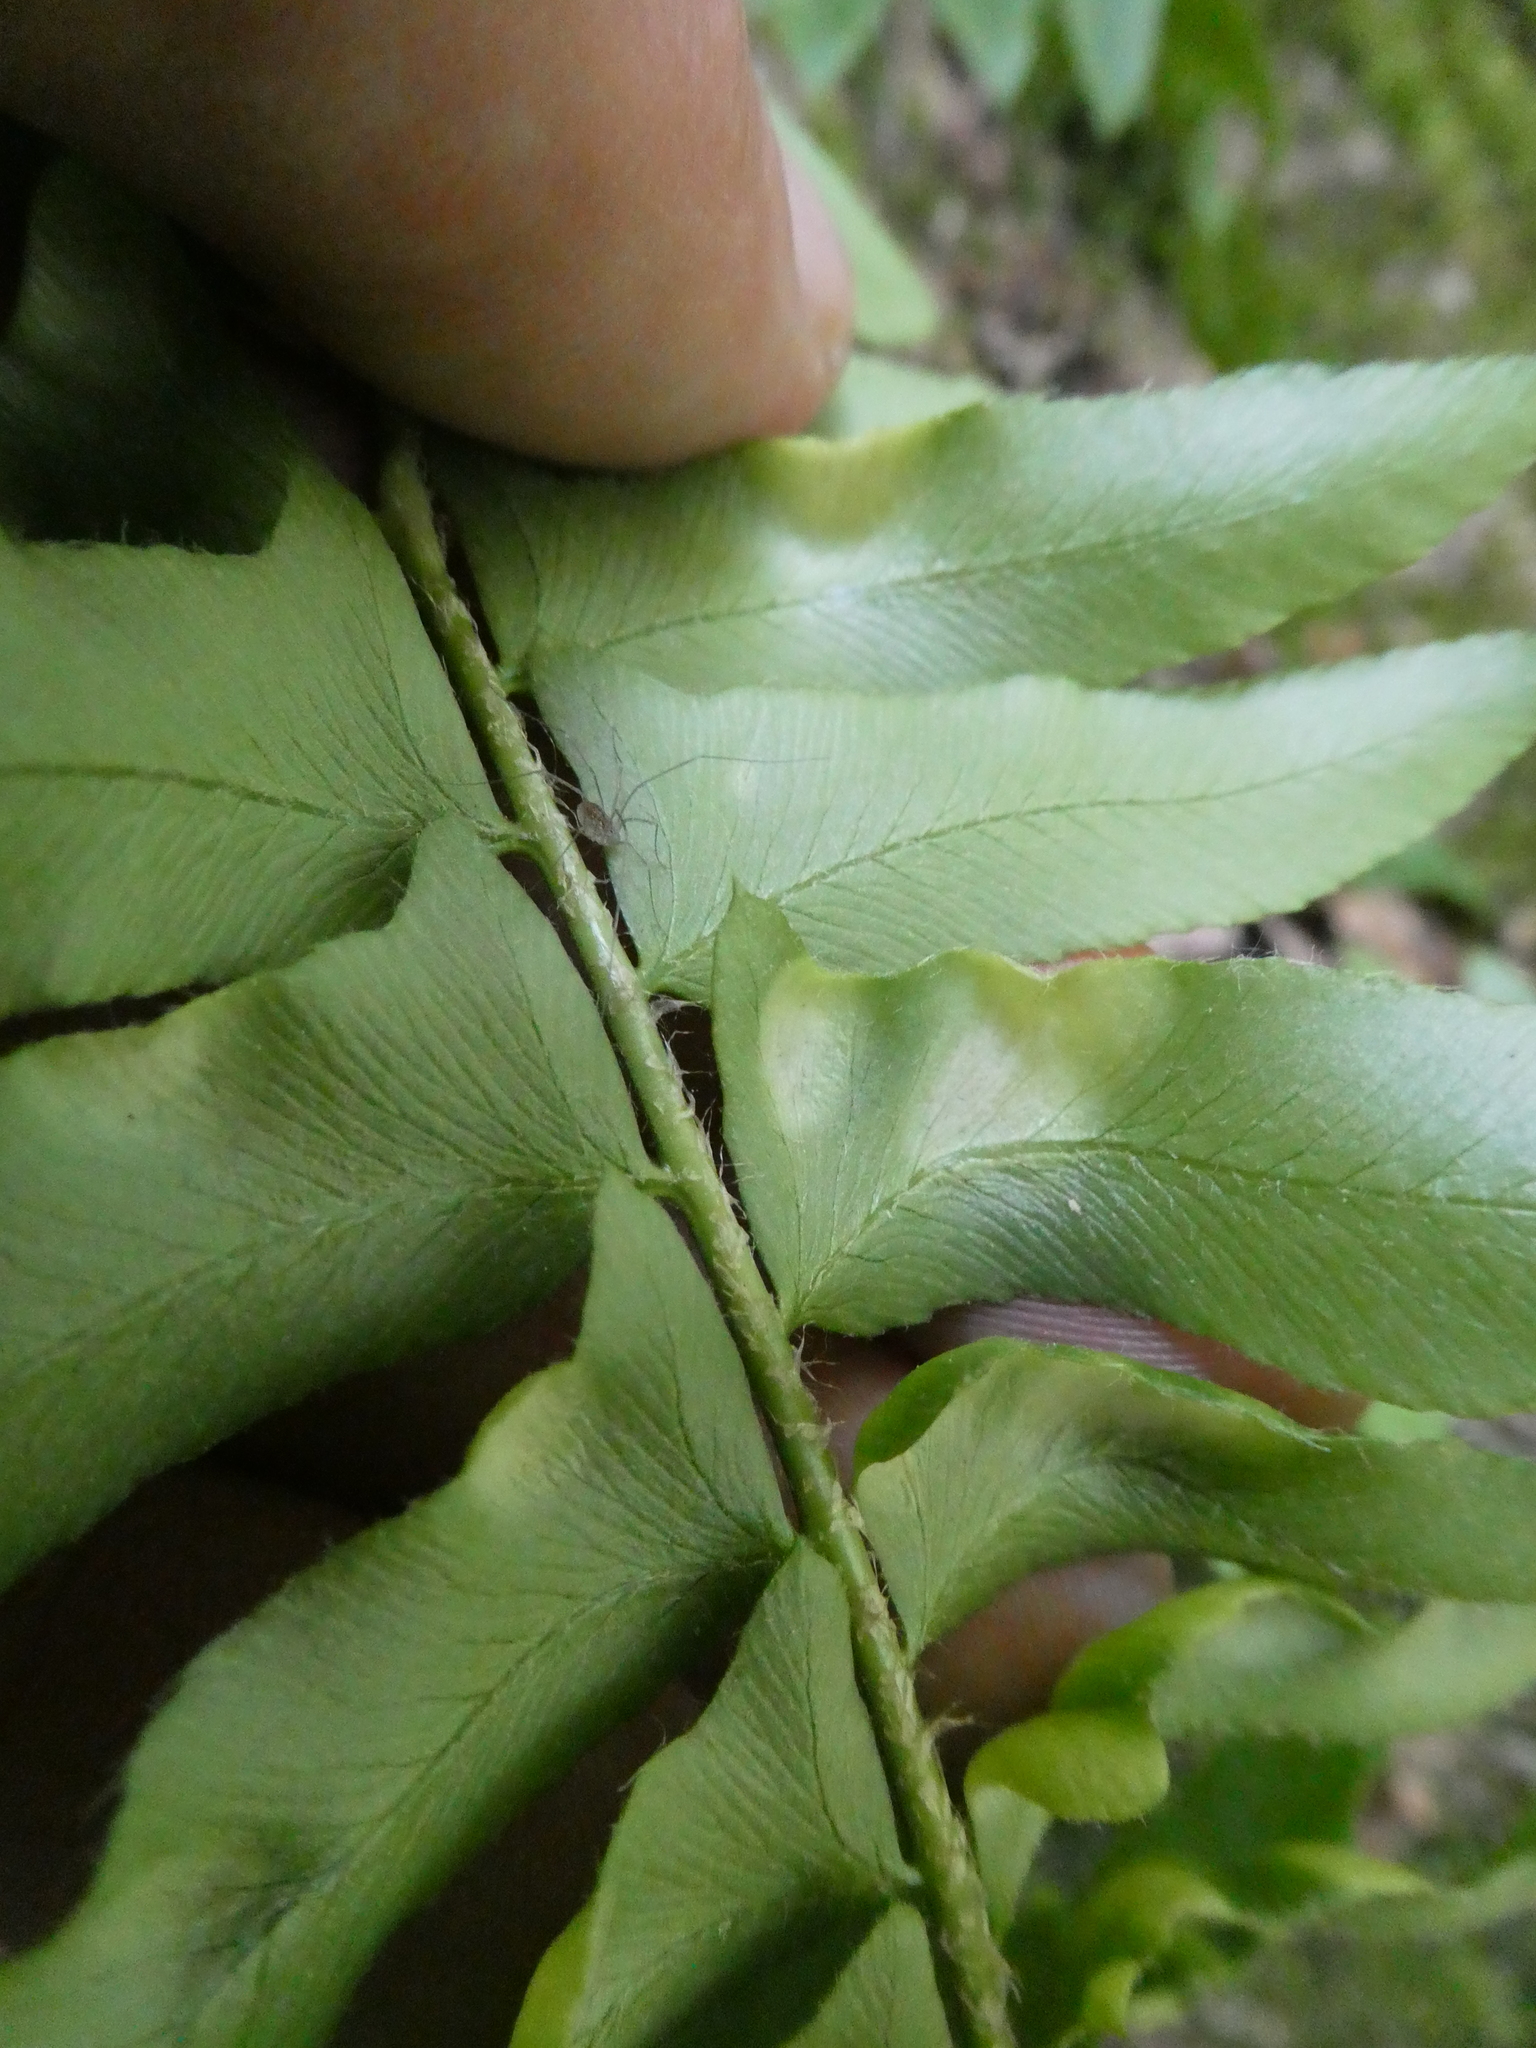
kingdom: Plantae
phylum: Tracheophyta
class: Polypodiopsida
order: Polypodiales
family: Dryopteridaceae
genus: Polystichum
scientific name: Polystichum acrostichoides
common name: Christmas fern
